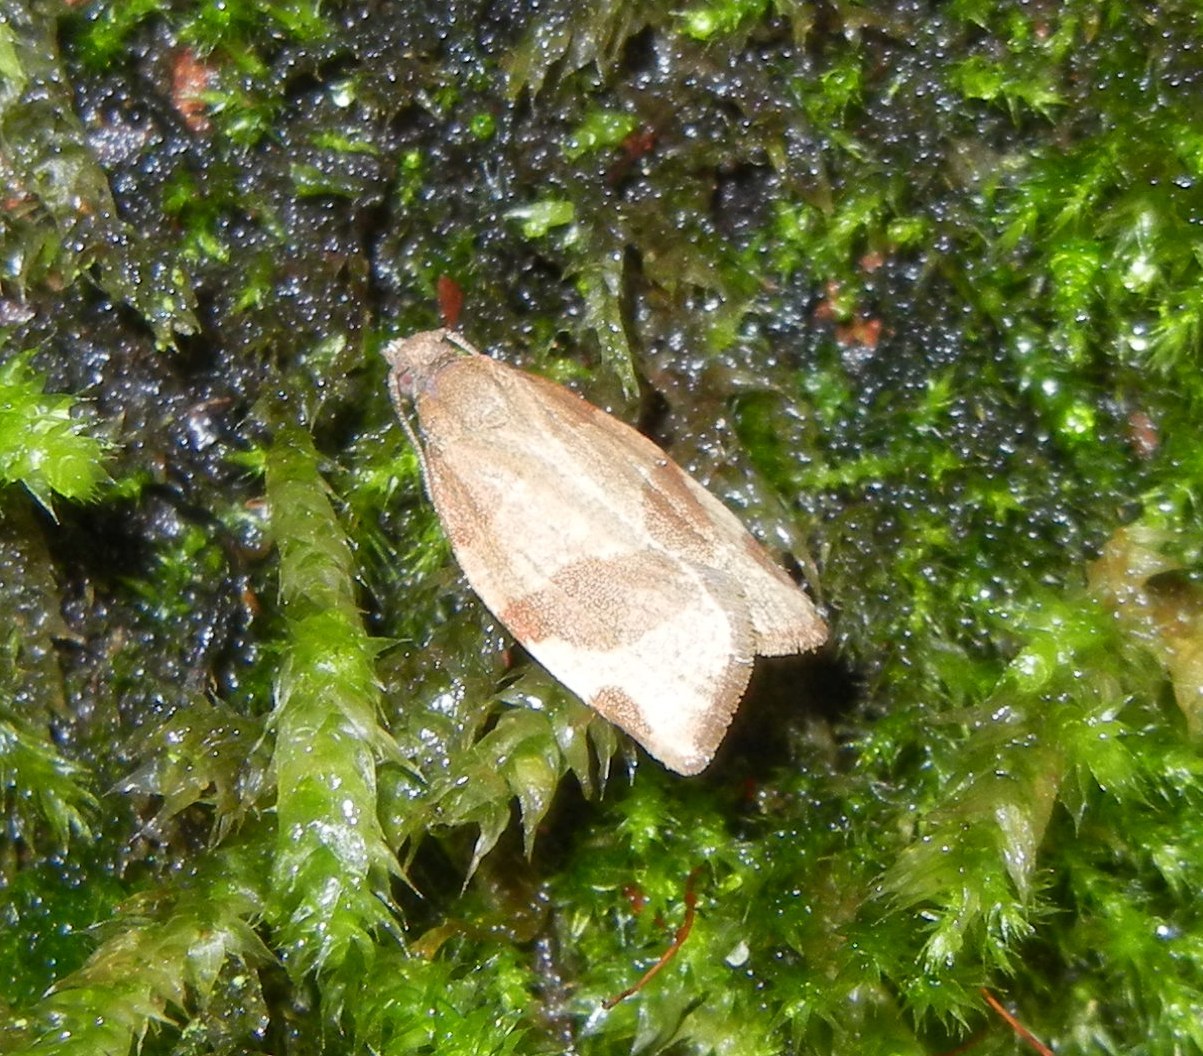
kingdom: Animalia
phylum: Arthropoda
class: Insecta
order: Lepidoptera
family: Tortricidae
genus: Pandemis
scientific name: Pandemis cerasana
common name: Barred fruit-tree tortrix
